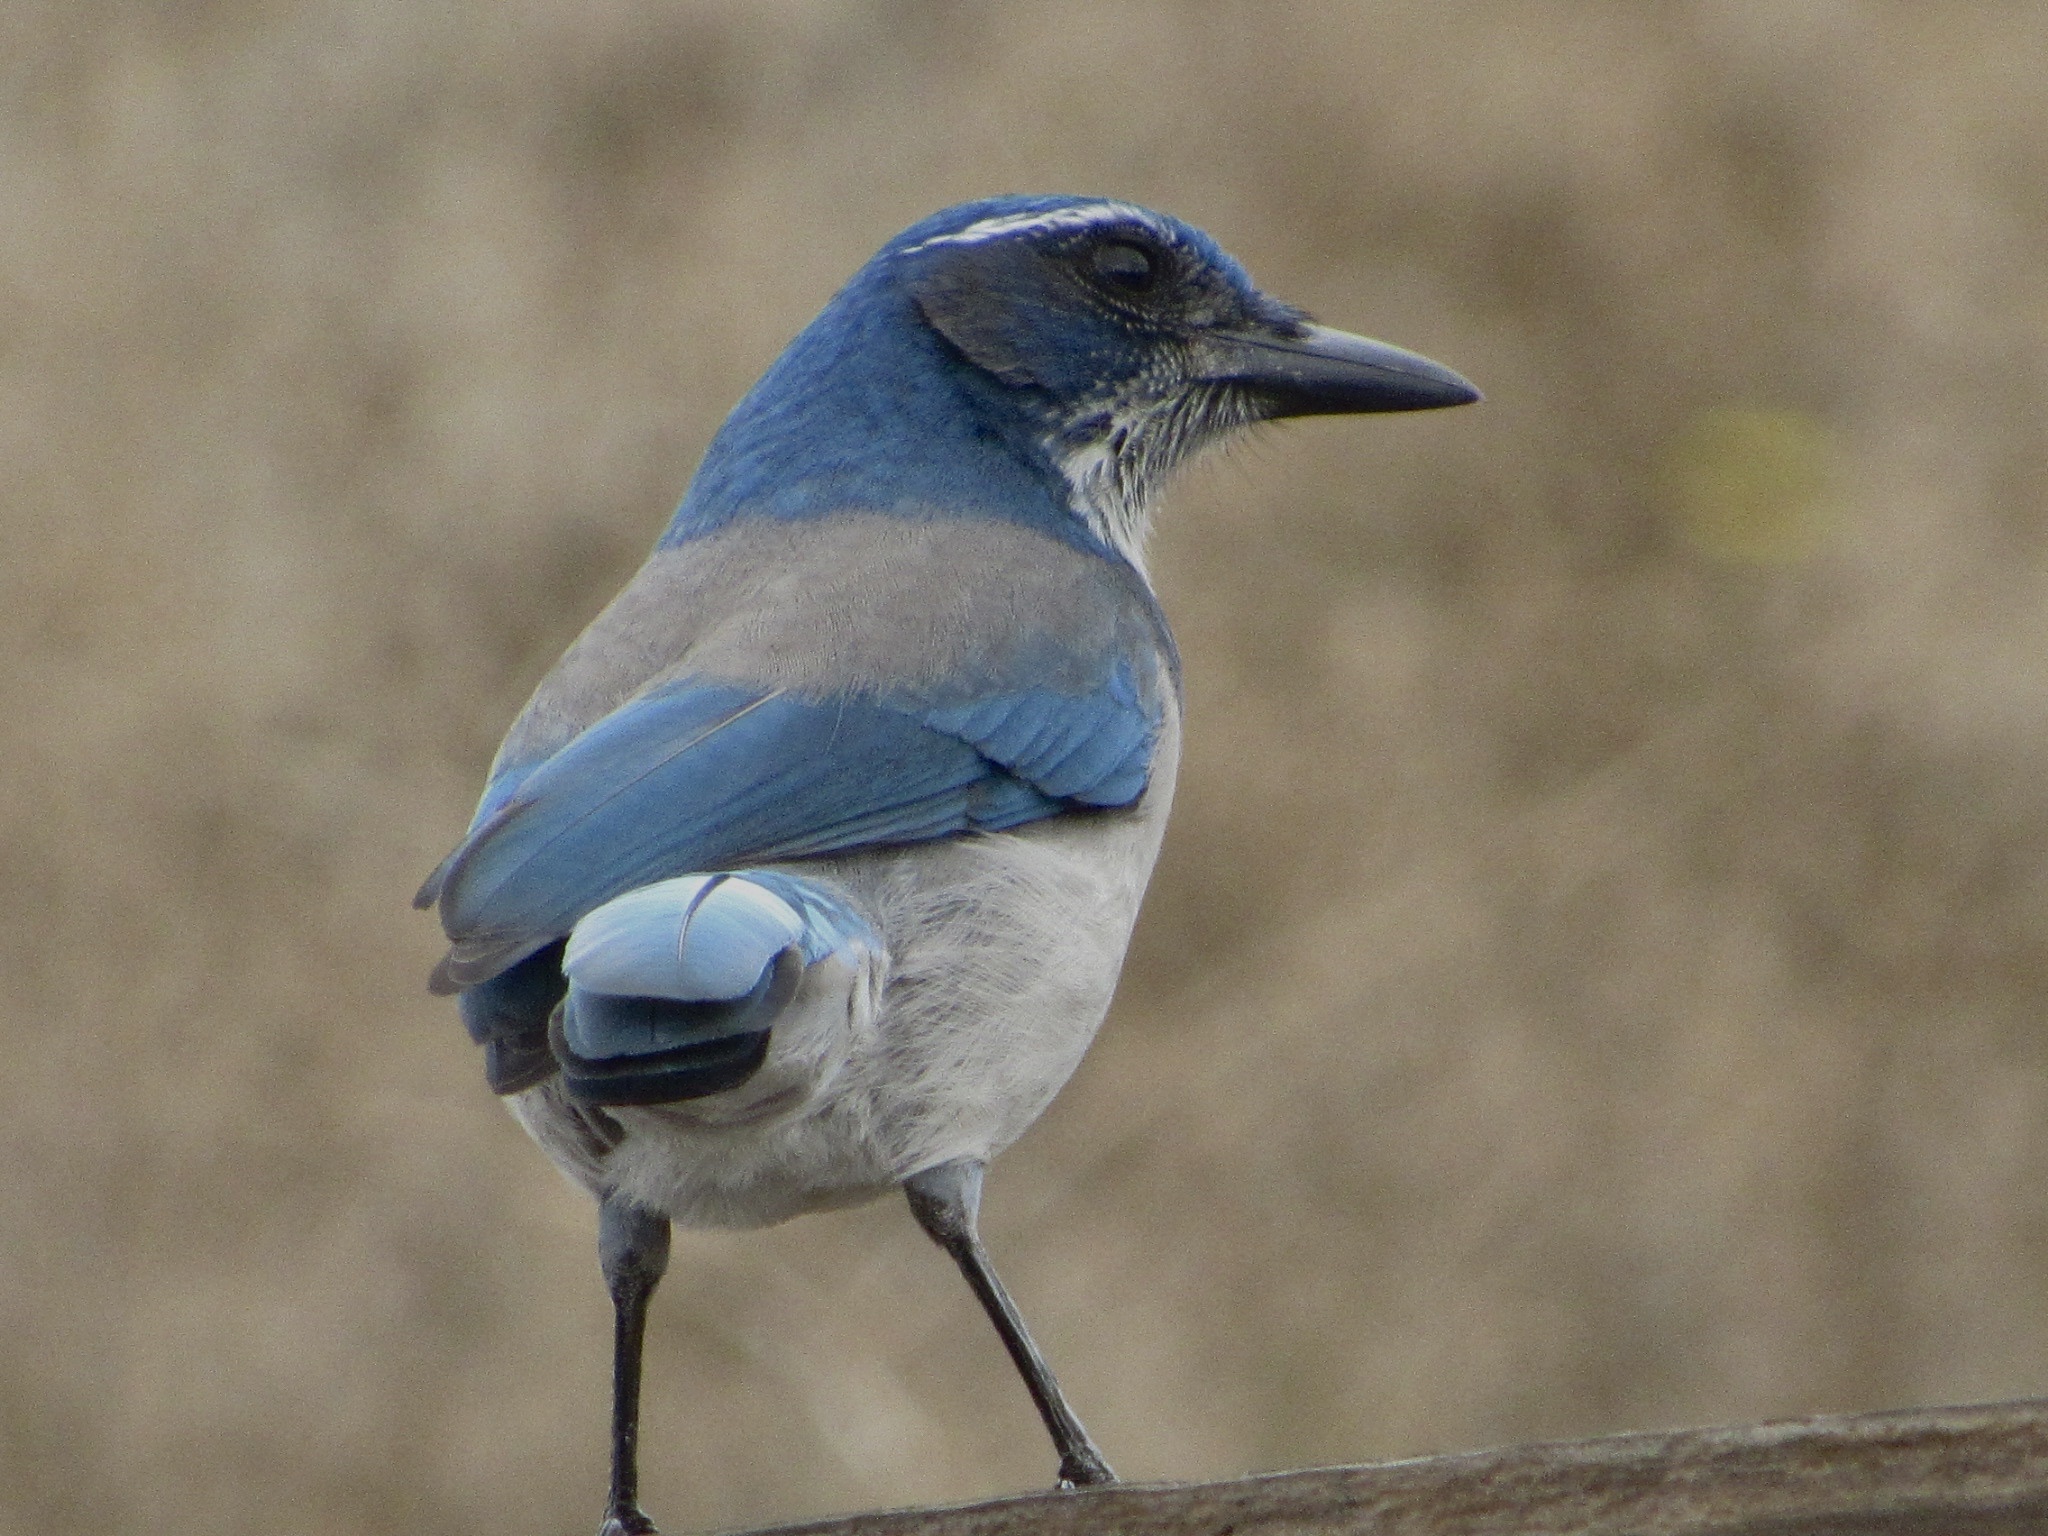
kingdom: Animalia
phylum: Chordata
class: Aves
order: Passeriformes
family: Corvidae
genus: Aphelocoma
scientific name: Aphelocoma californica
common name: California scrub-jay
